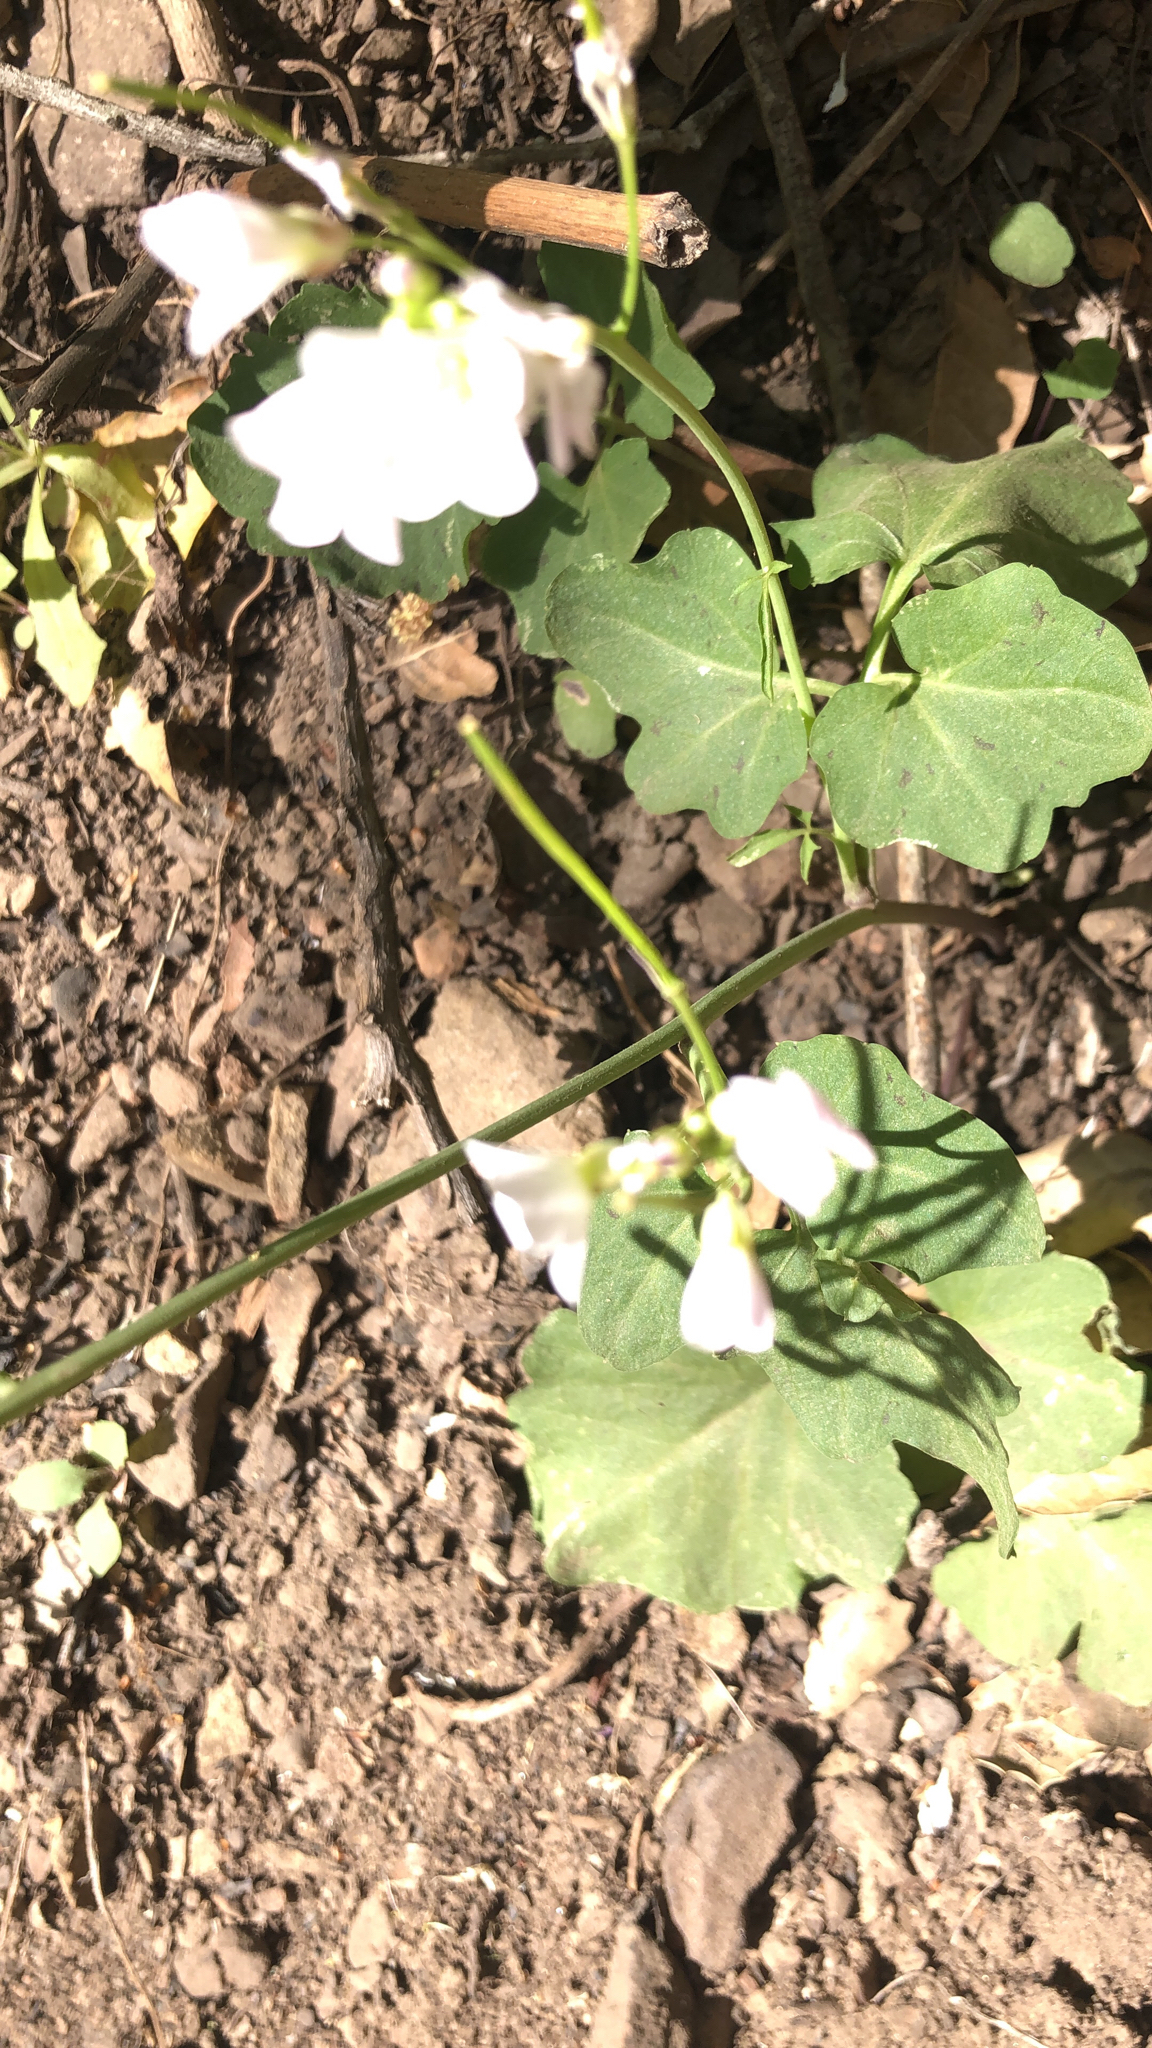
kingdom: Plantae
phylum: Tracheophyta
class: Magnoliopsida
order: Brassicales
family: Brassicaceae
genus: Cardamine
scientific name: Cardamine californica
